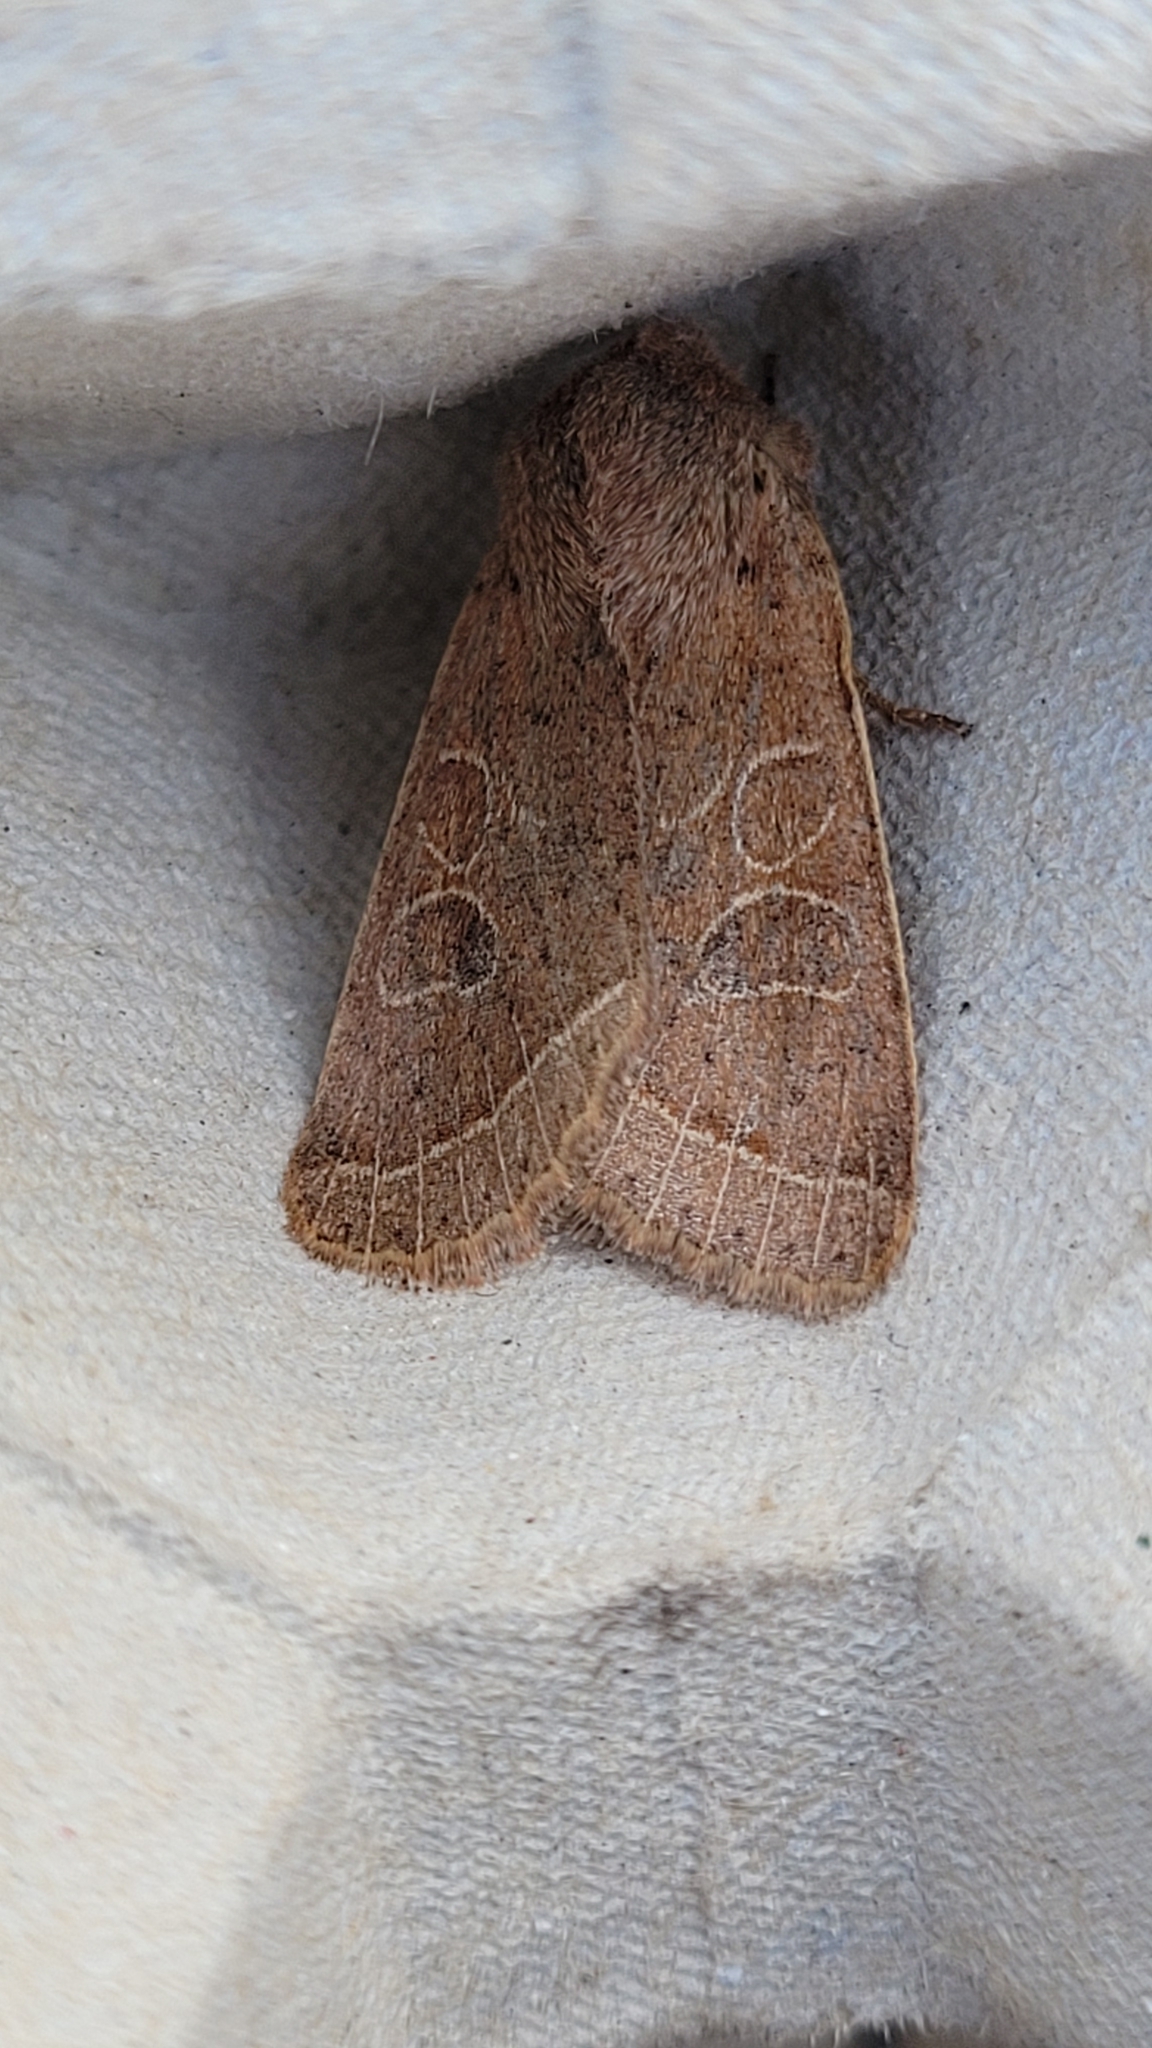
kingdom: Animalia
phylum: Arthropoda
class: Insecta
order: Lepidoptera
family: Noctuidae
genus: Orthosia
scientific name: Orthosia cerasi
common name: Common quaker
